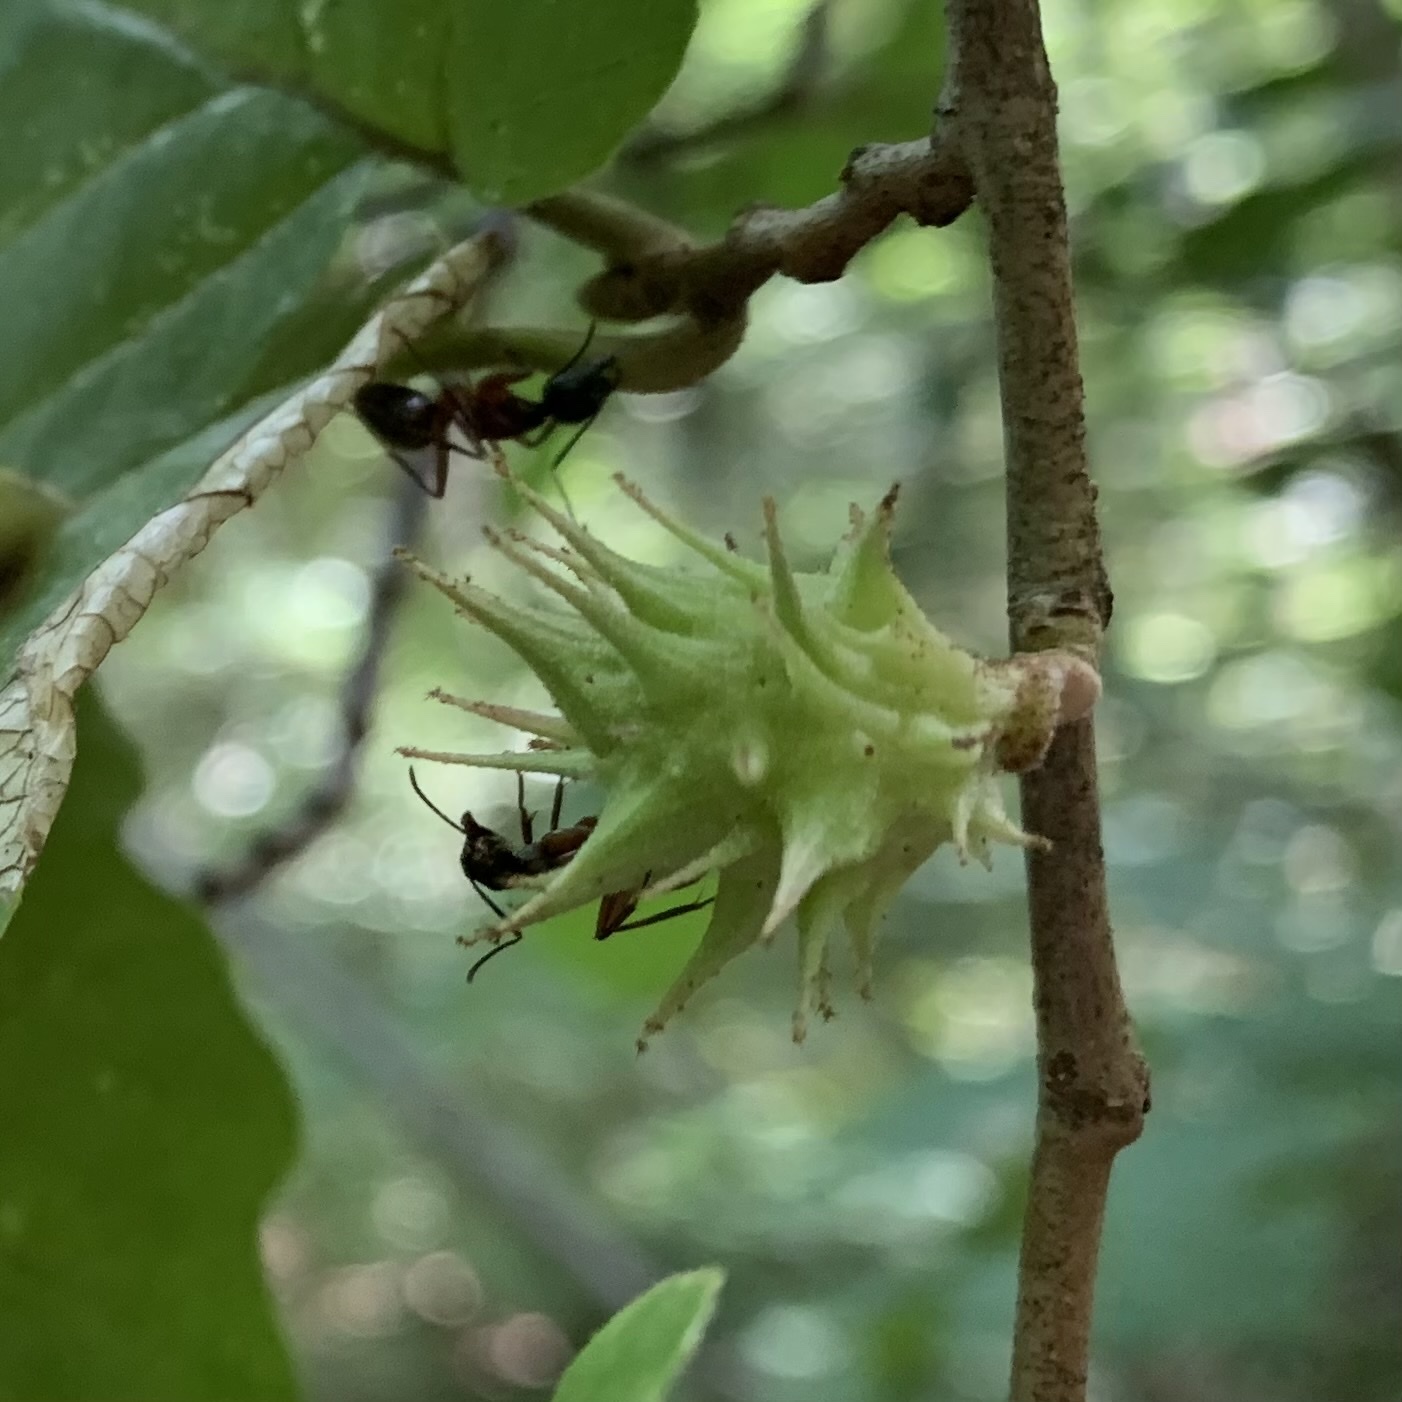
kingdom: Animalia
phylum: Arthropoda
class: Insecta
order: Hemiptera
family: Aphididae
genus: Hamamelistes
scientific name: Hamamelistes spinosus
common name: Witch hazel gall aphid
